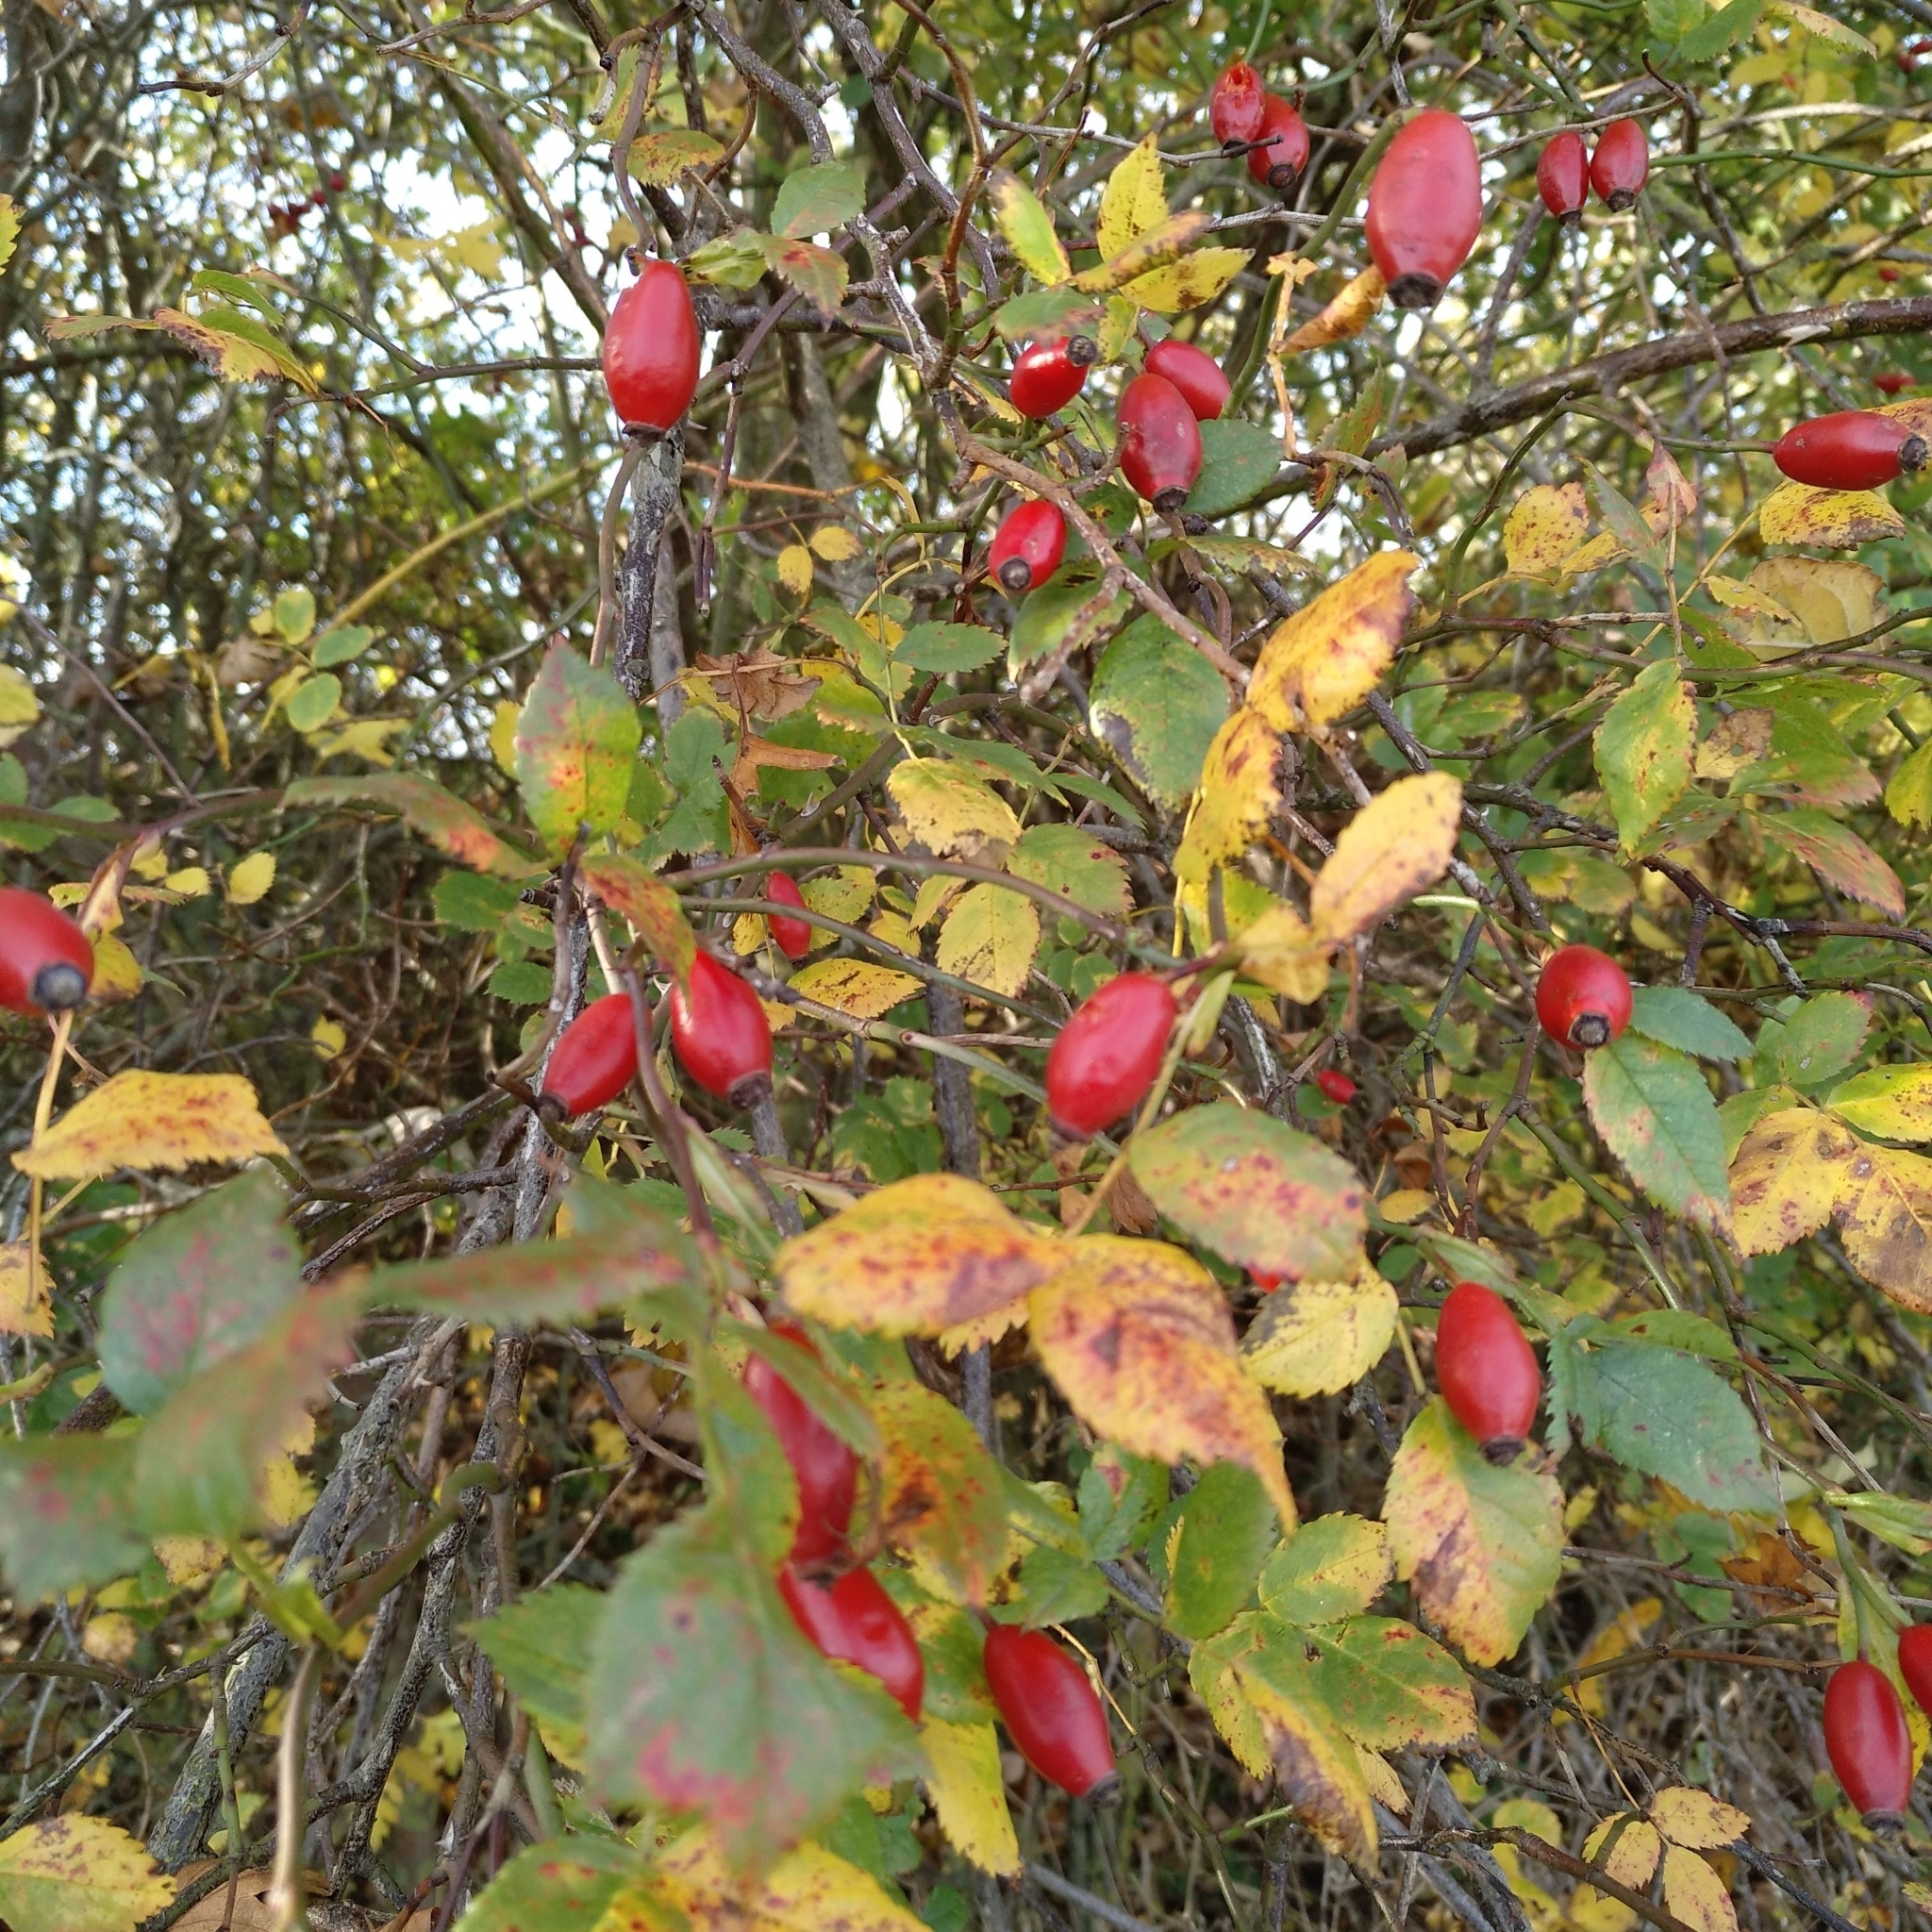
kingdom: Plantae
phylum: Tracheophyta
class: Magnoliopsida
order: Rosales
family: Rosaceae
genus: Rosa
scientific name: Rosa canina
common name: Dog rose
